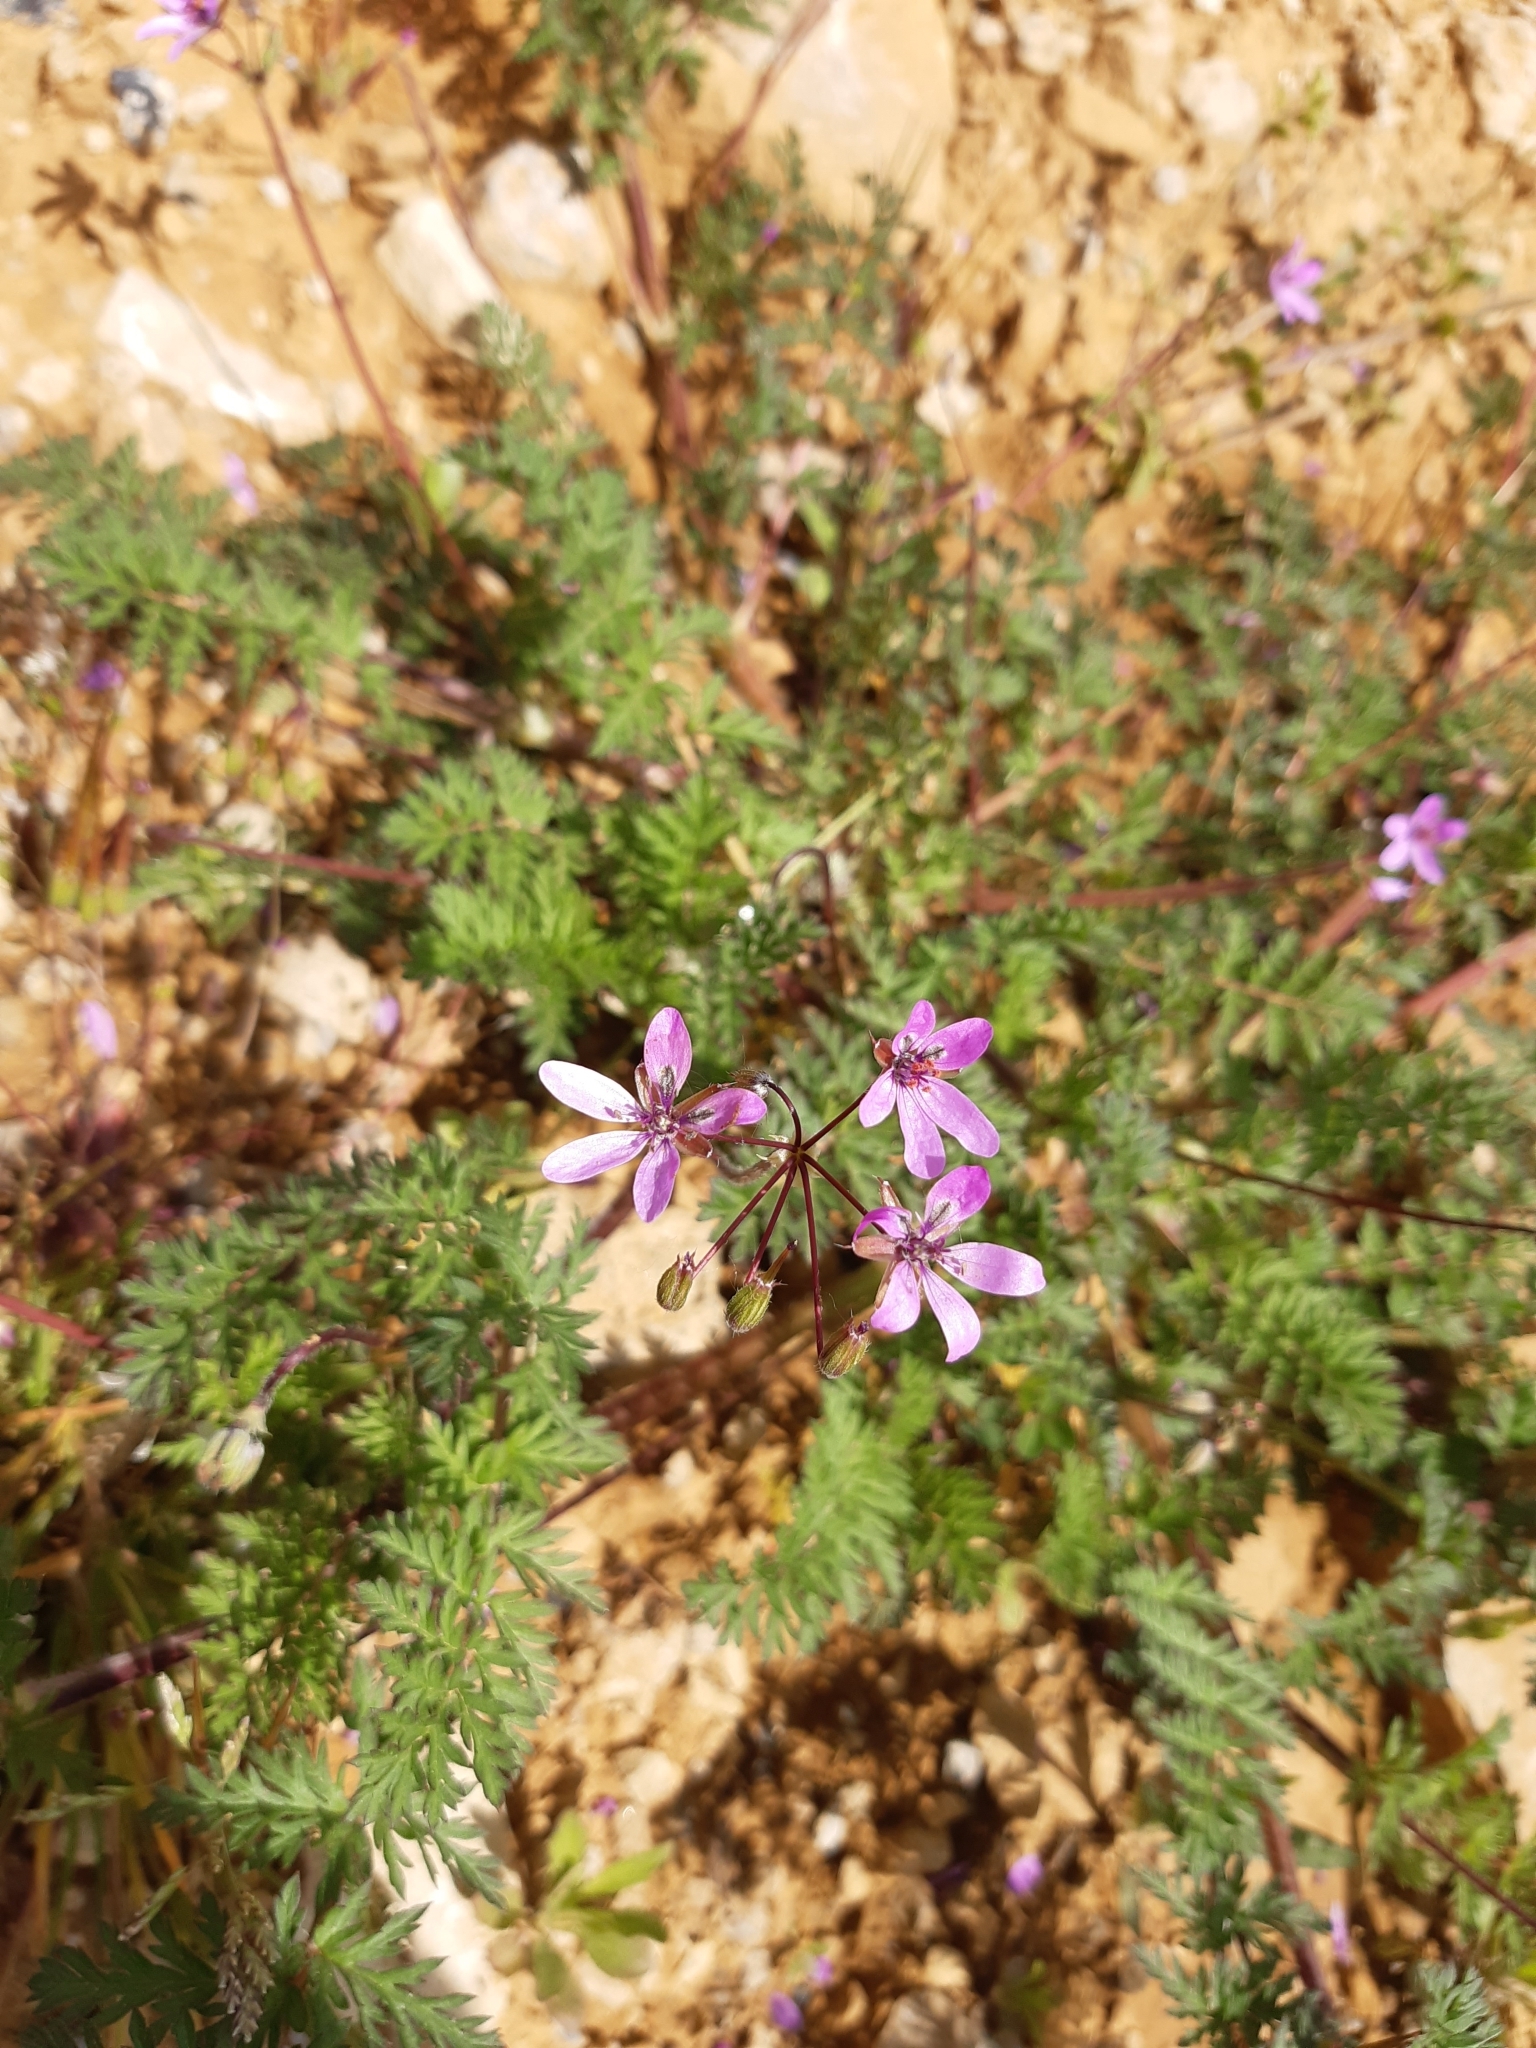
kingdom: Plantae
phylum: Tracheophyta
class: Magnoliopsida
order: Geraniales
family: Geraniaceae
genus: Erodium
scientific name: Erodium cicutarium
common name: Common stork's-bill
